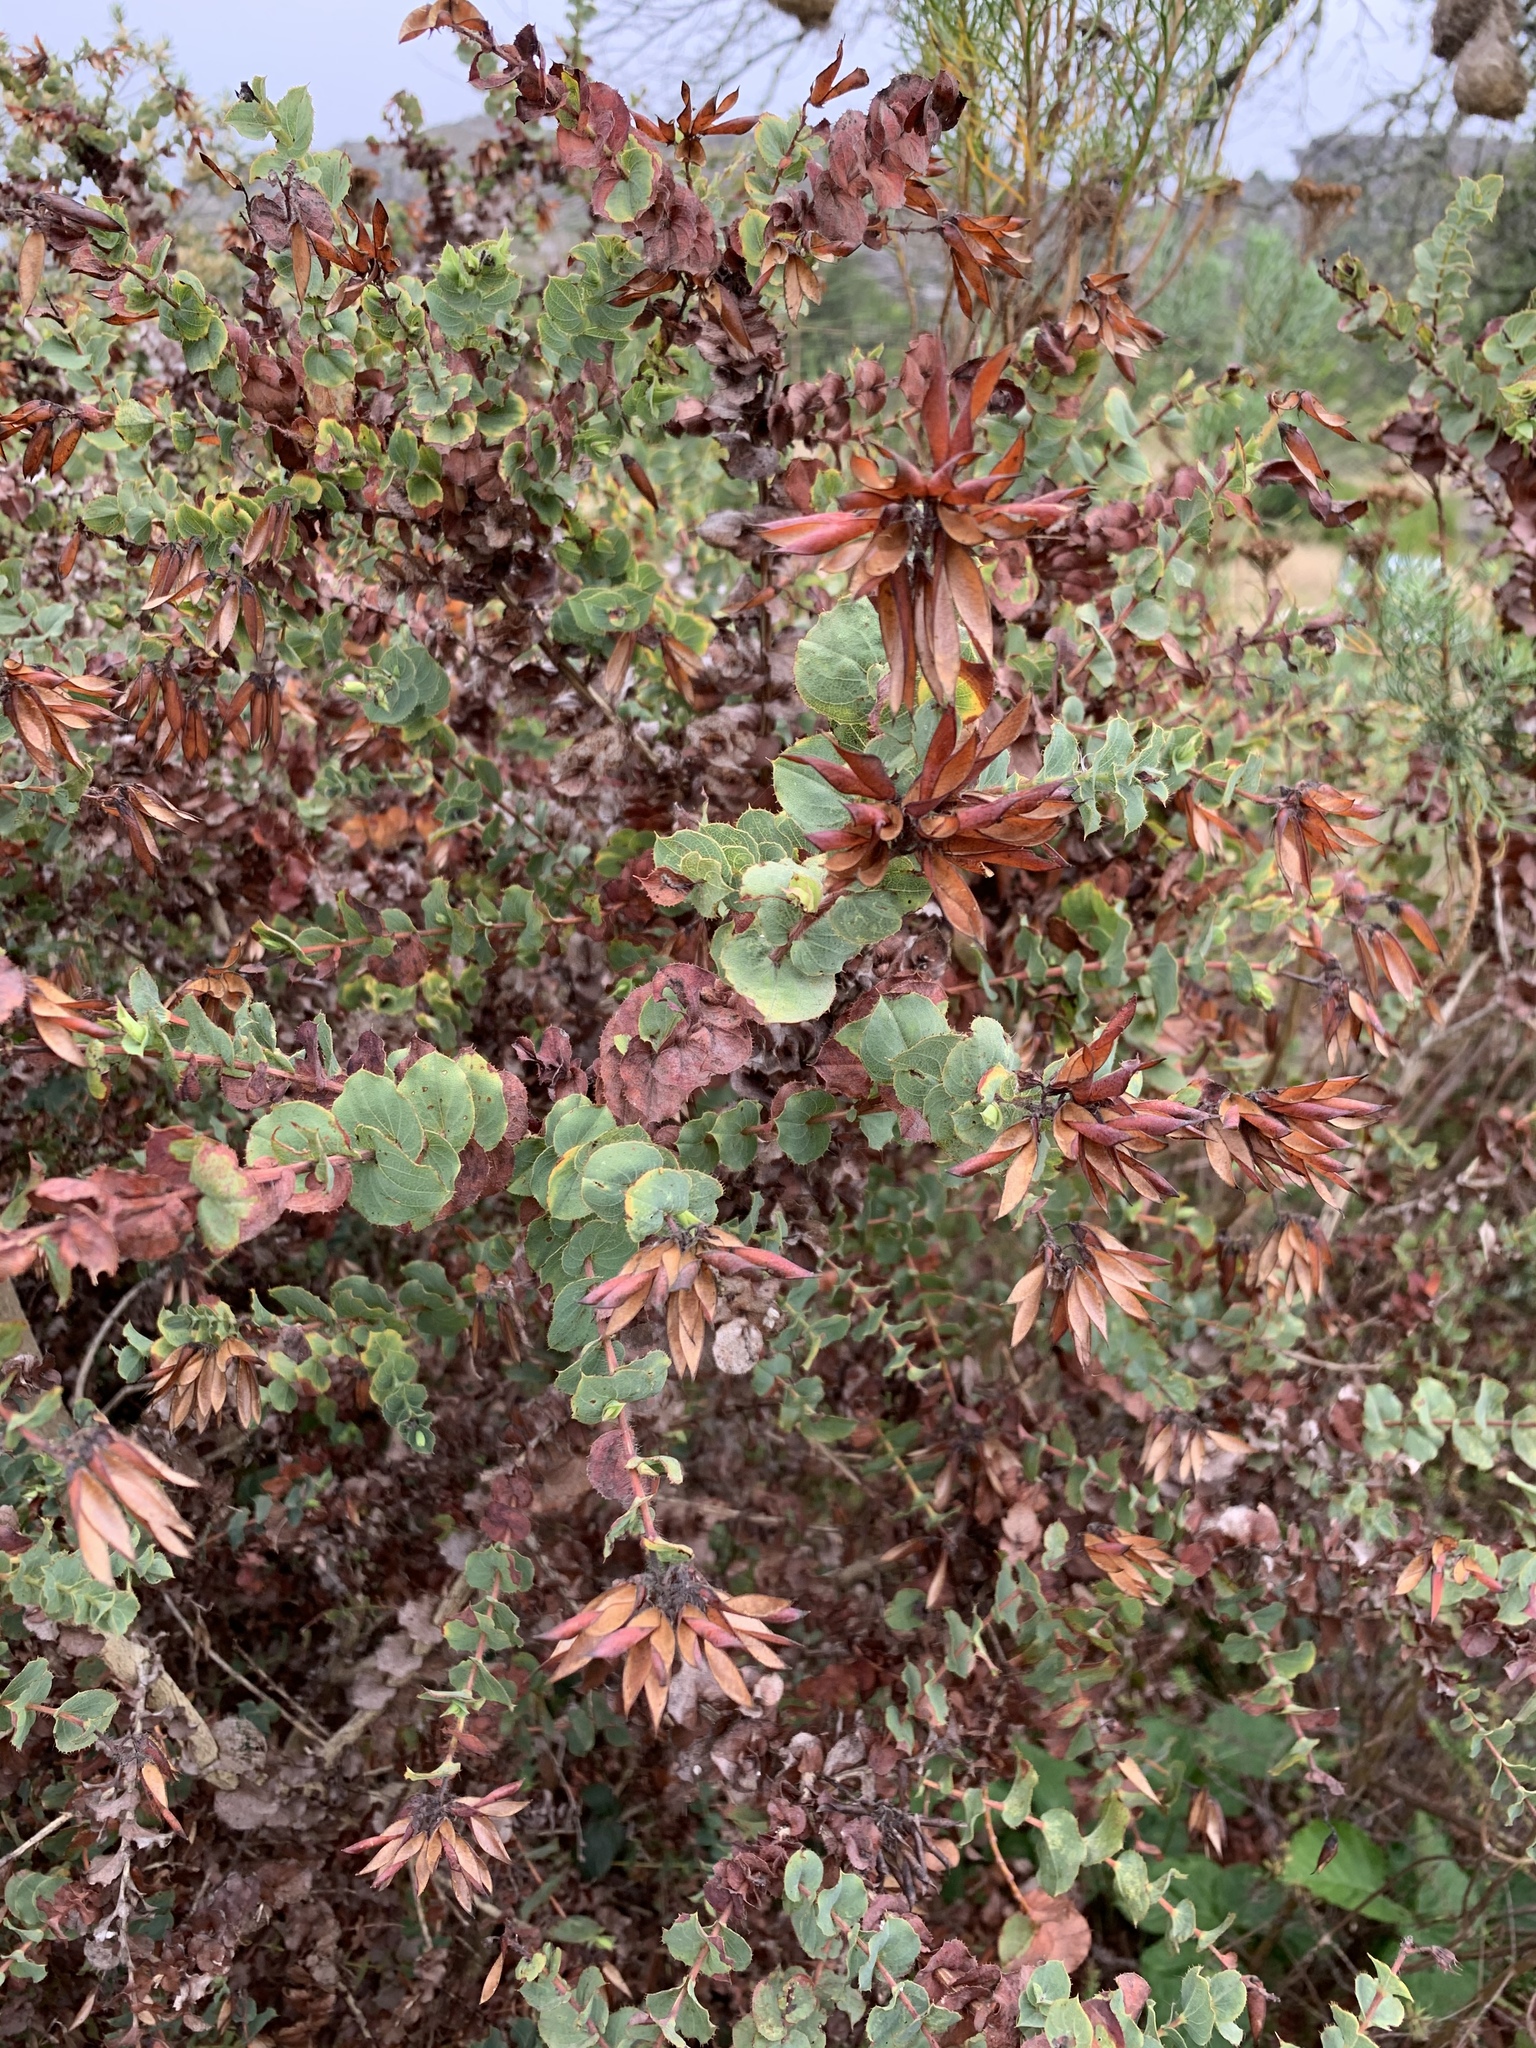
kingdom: Plantae
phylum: Tracheophyta
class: Magnoliopsida
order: Fabales
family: Fabaceae
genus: Aspalathus
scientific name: Aspalathus perfoliata
